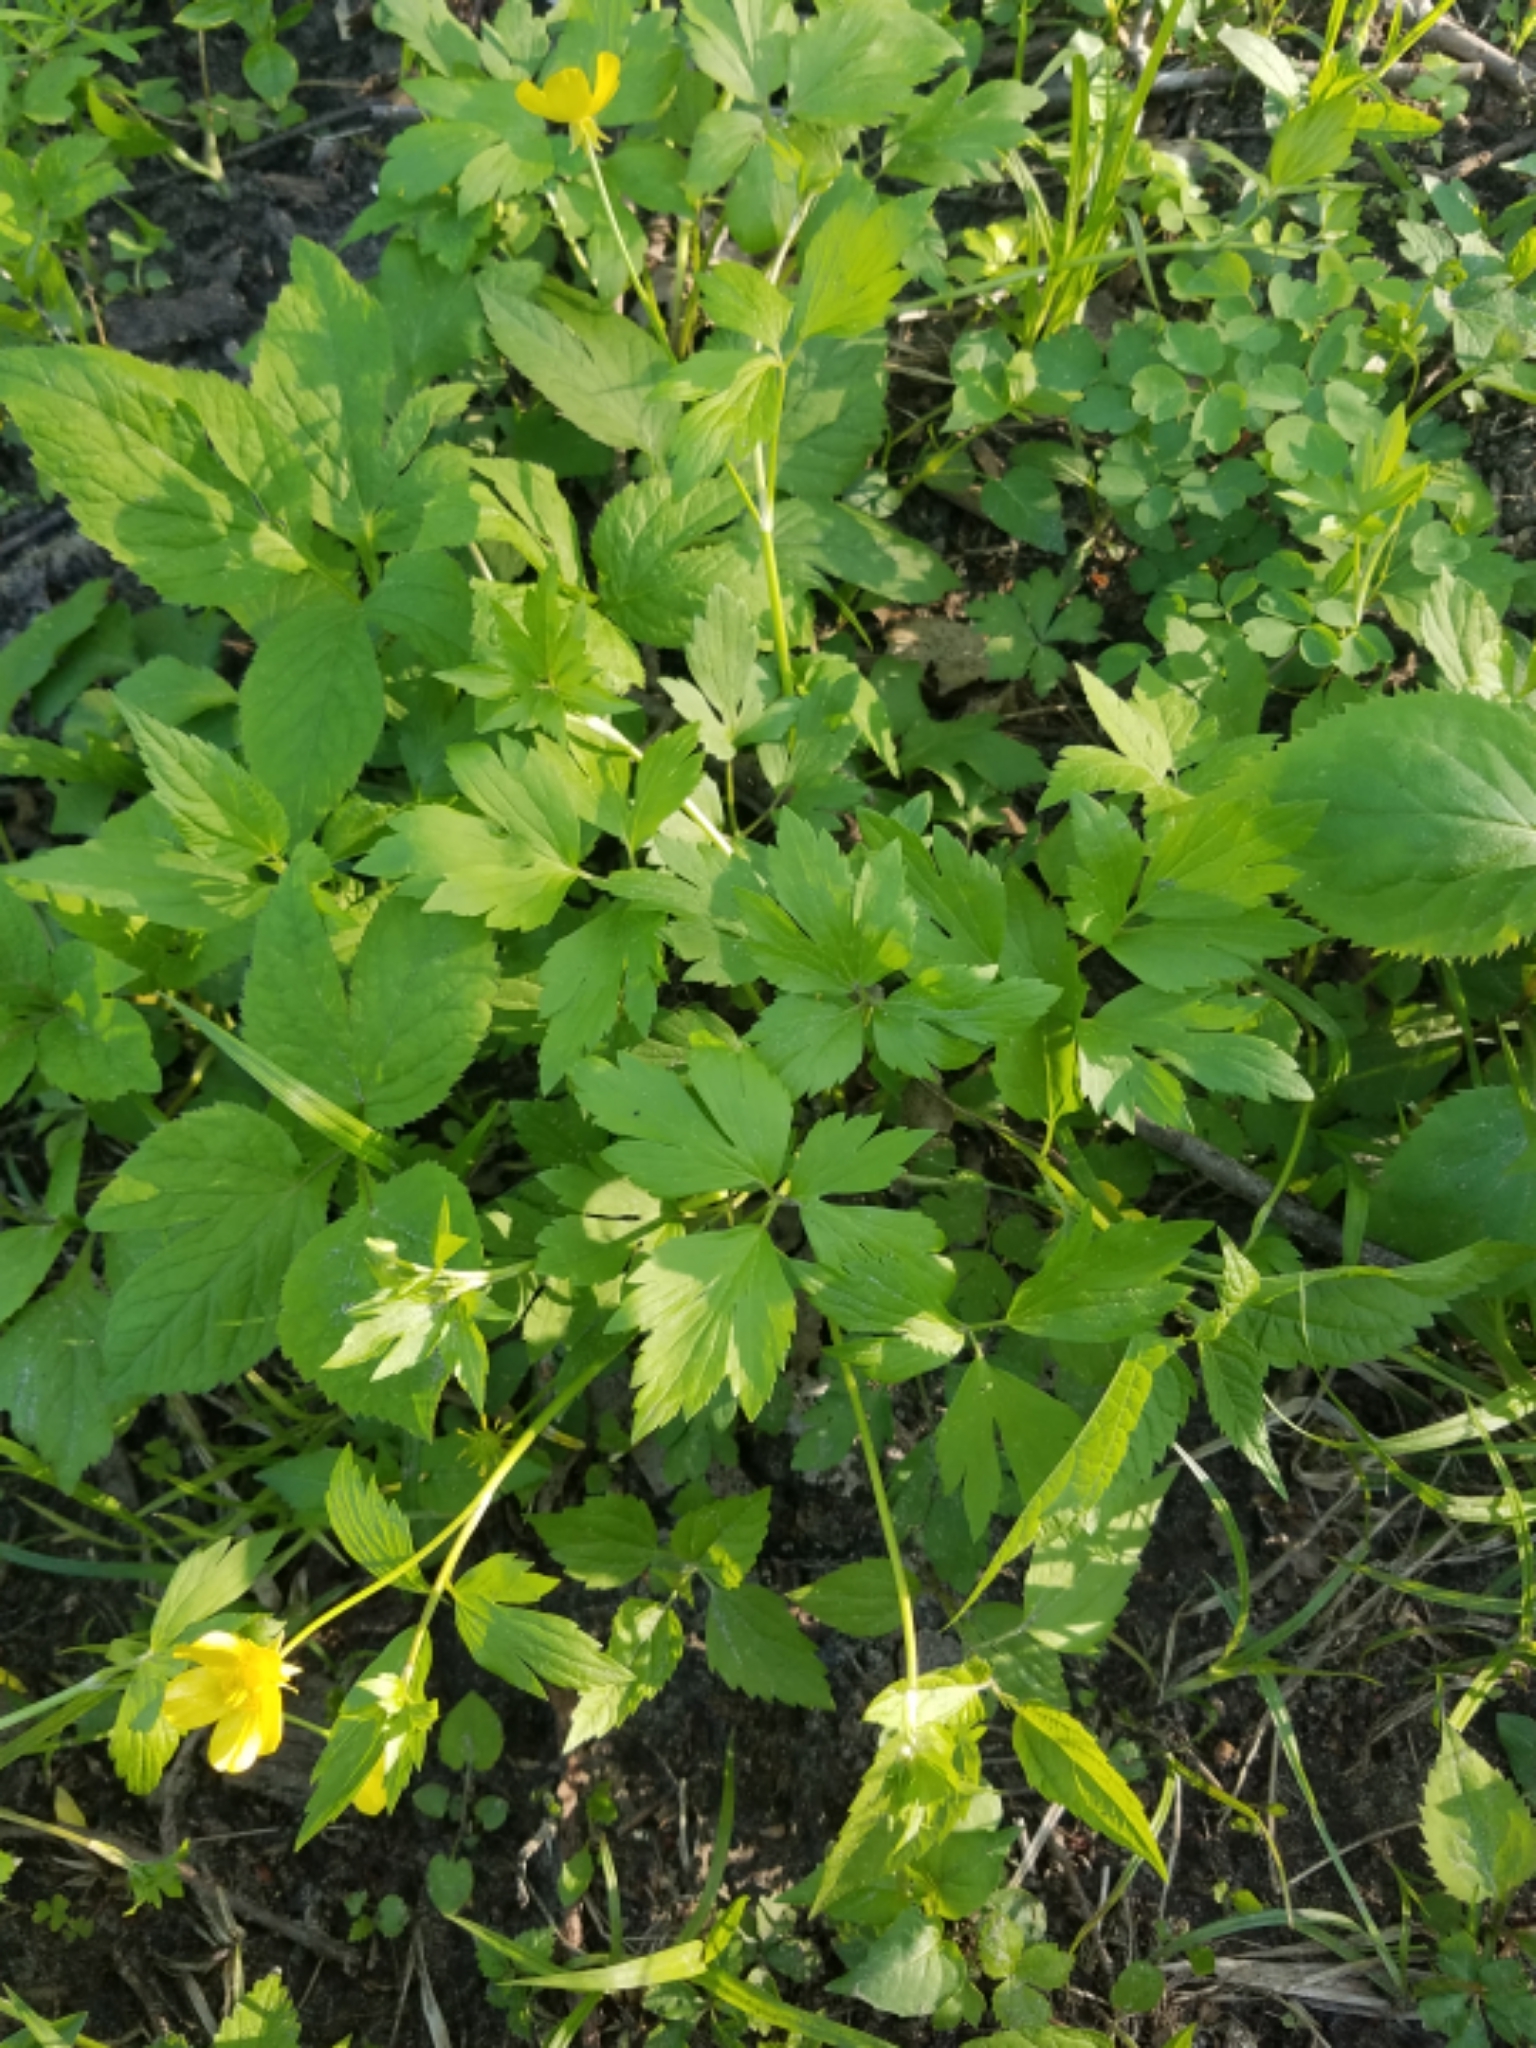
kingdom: Plantae
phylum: Tracheophyta
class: Magnoliopsida
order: Ranunculales
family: Ranunculaceae
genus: Ranunculus
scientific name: Ranunculus hispidus
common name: Bristly buttercup
